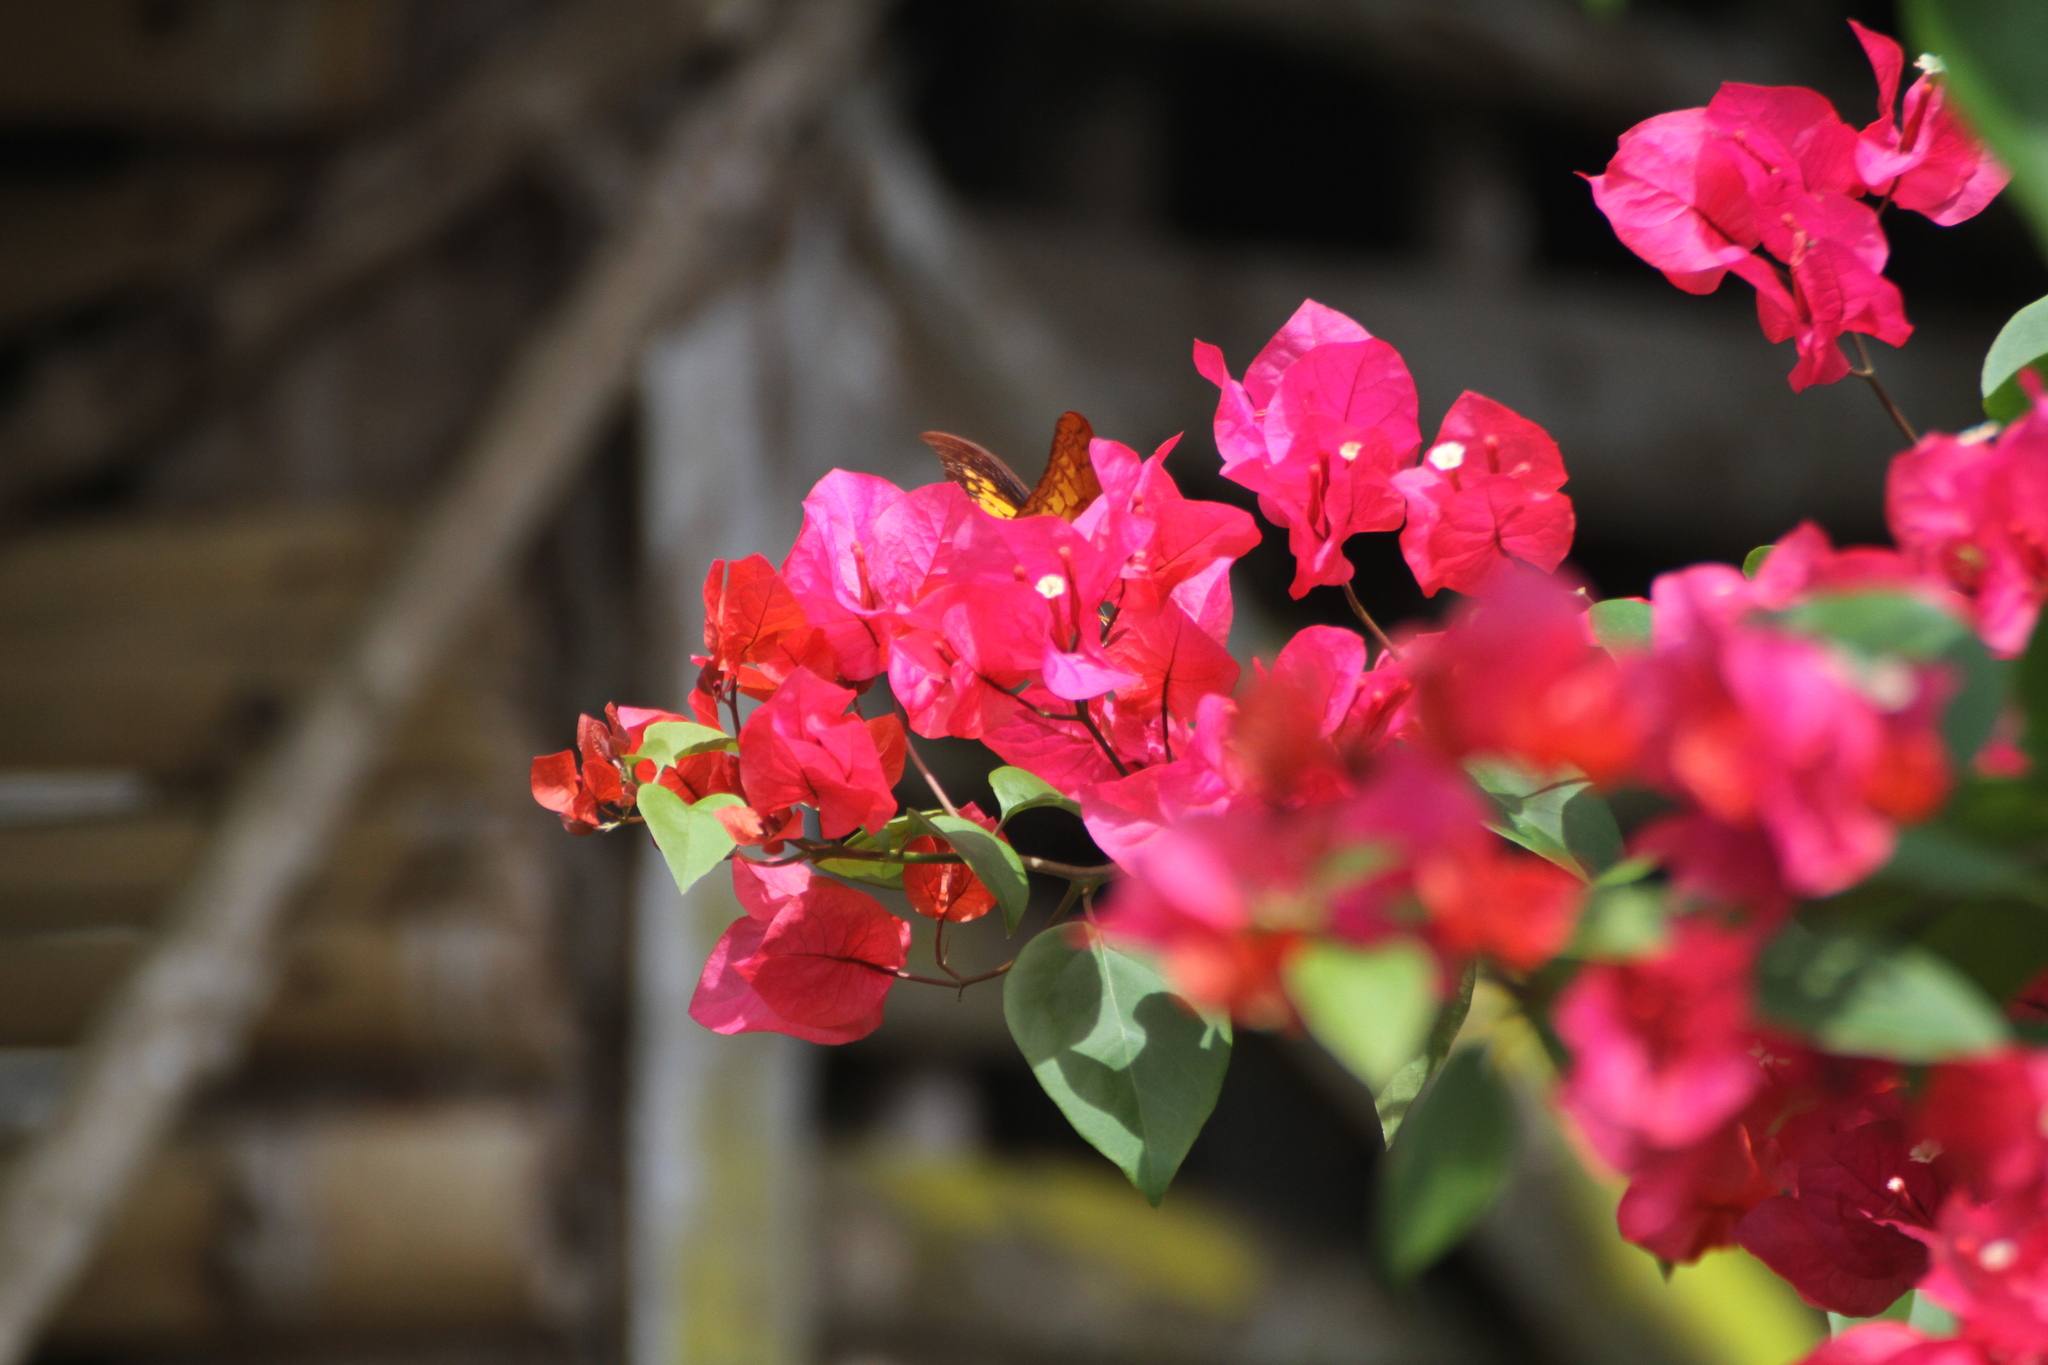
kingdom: Animalia
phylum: Arthropoda
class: Insecta
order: Lepidoptera
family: Papilionidae
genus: Meandrusa
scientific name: Meandrusa payeni
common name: Outlet sword
